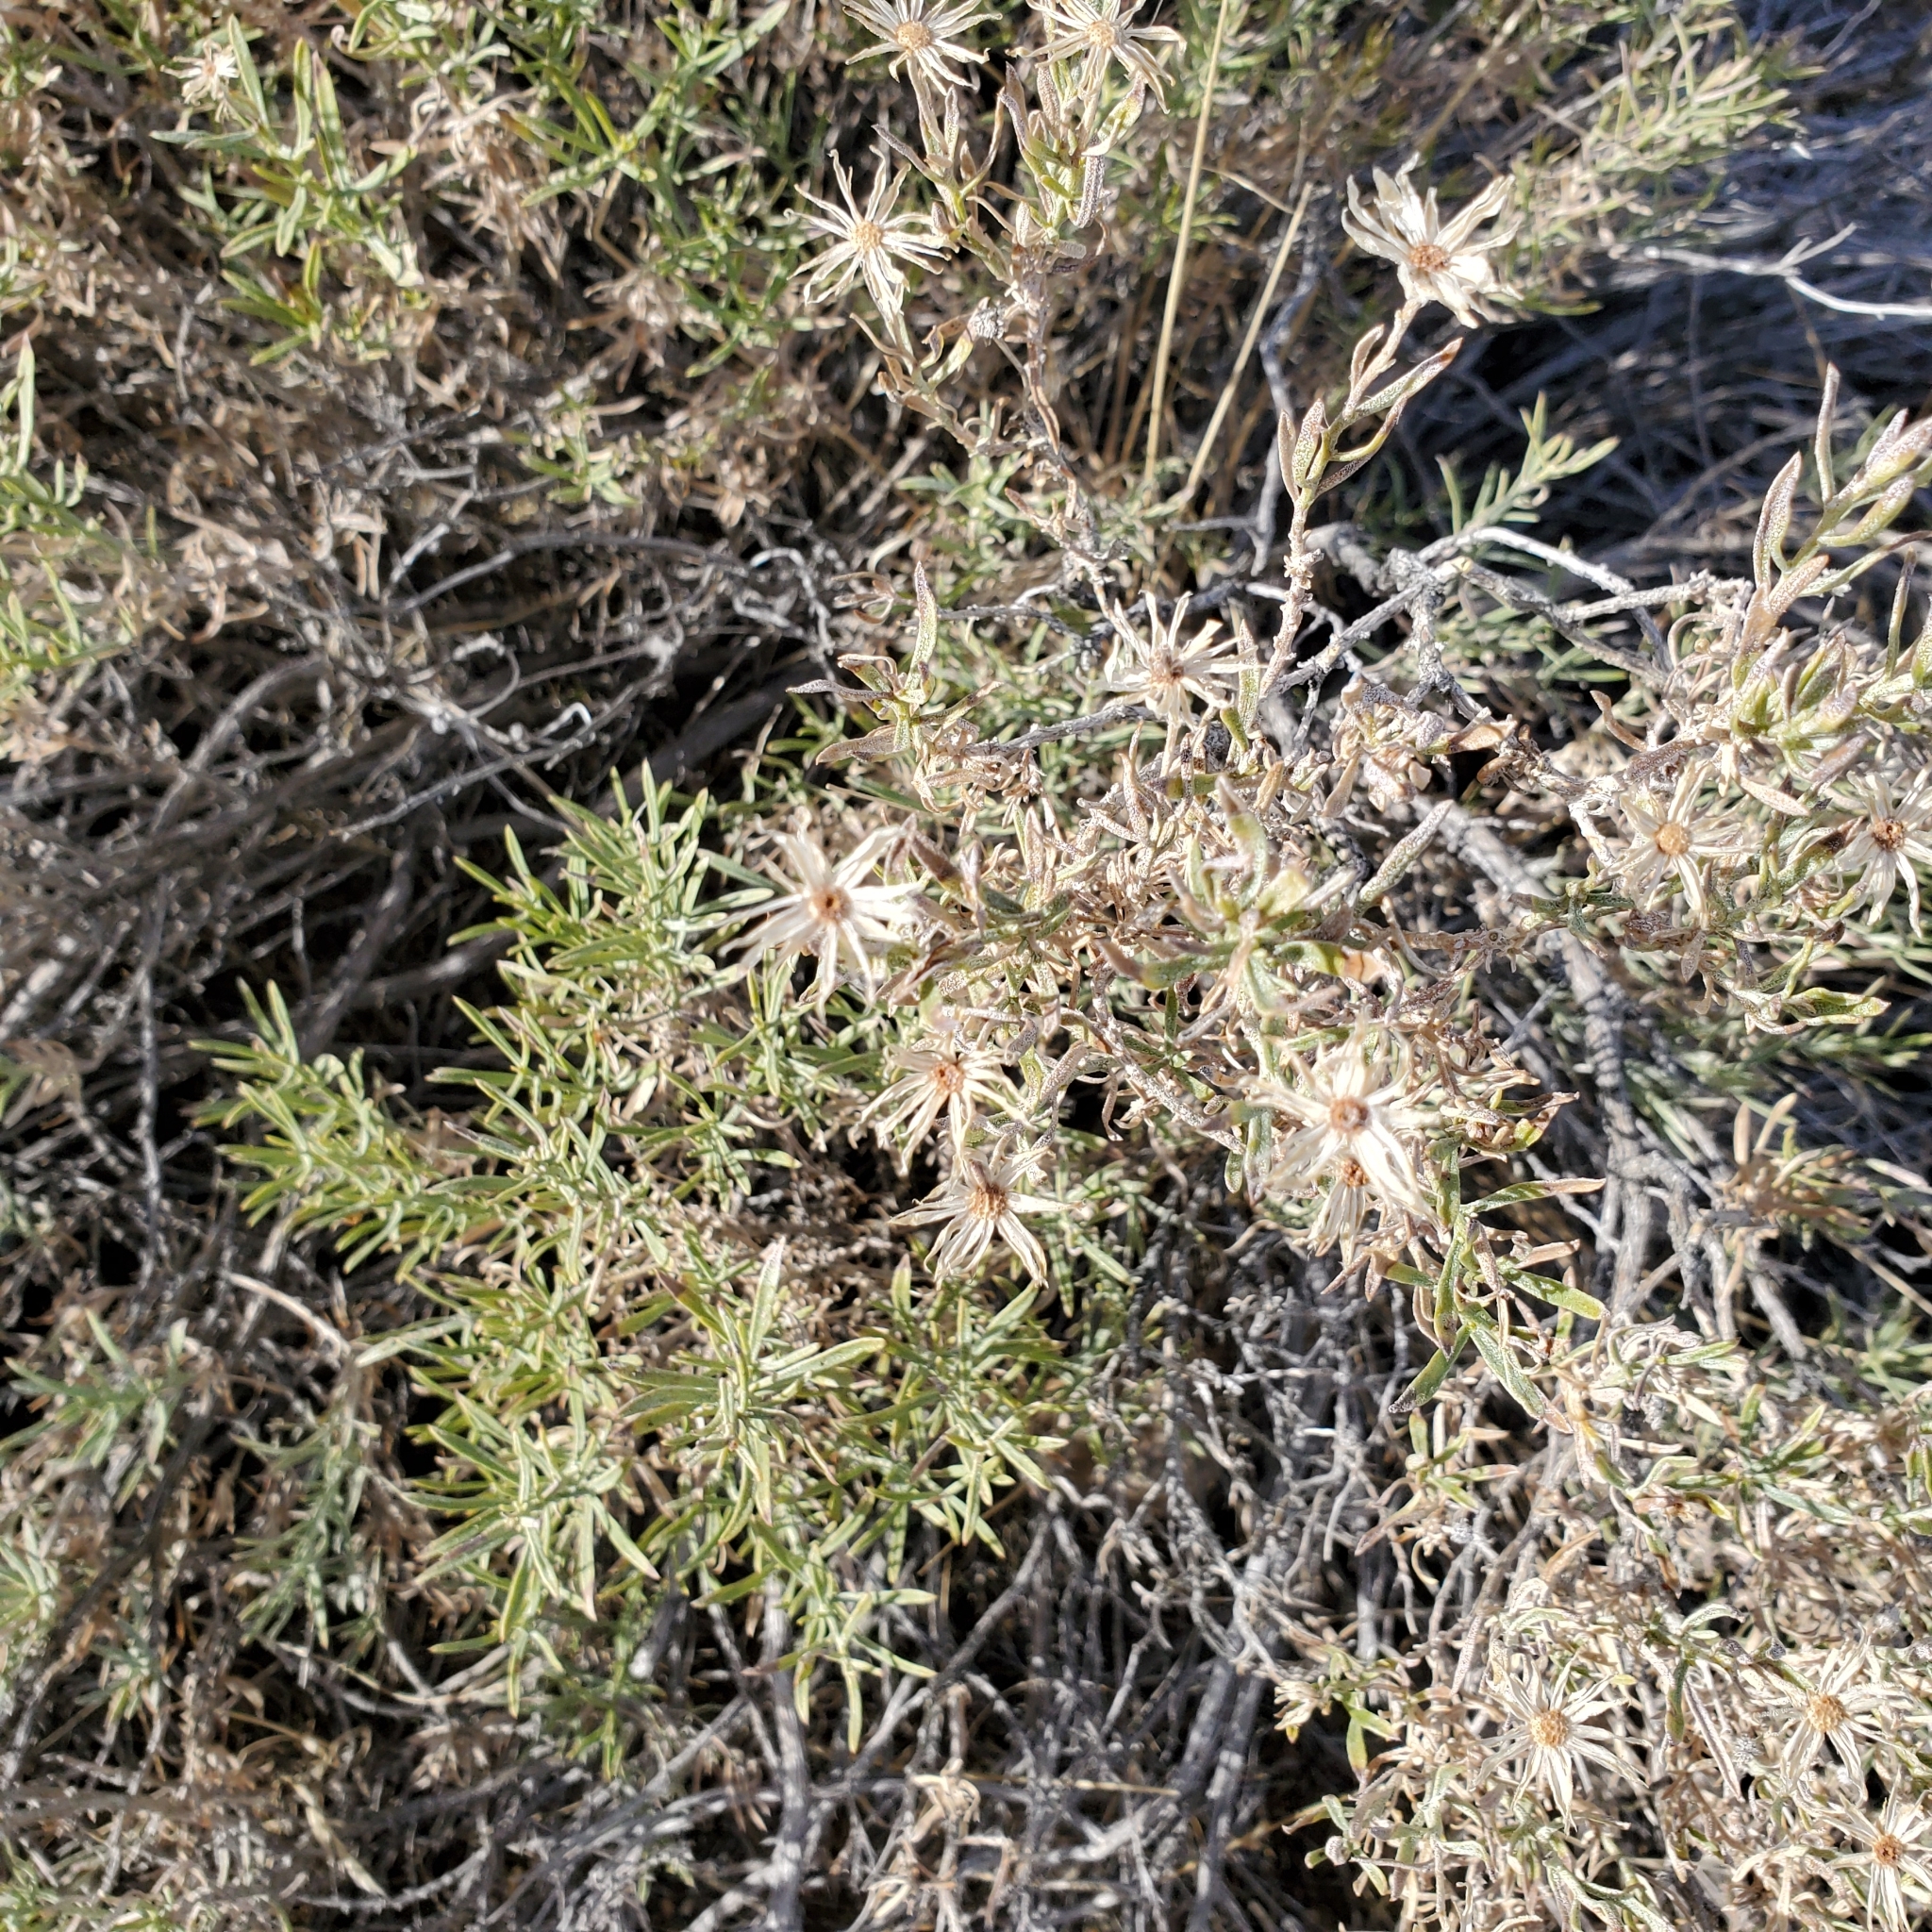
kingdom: Plantae
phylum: Tracheophyta
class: Magnoliopsida
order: Asterales
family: Asteraceae
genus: Ericameria
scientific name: Ericameria linearifolia
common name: Interior goldenbush
